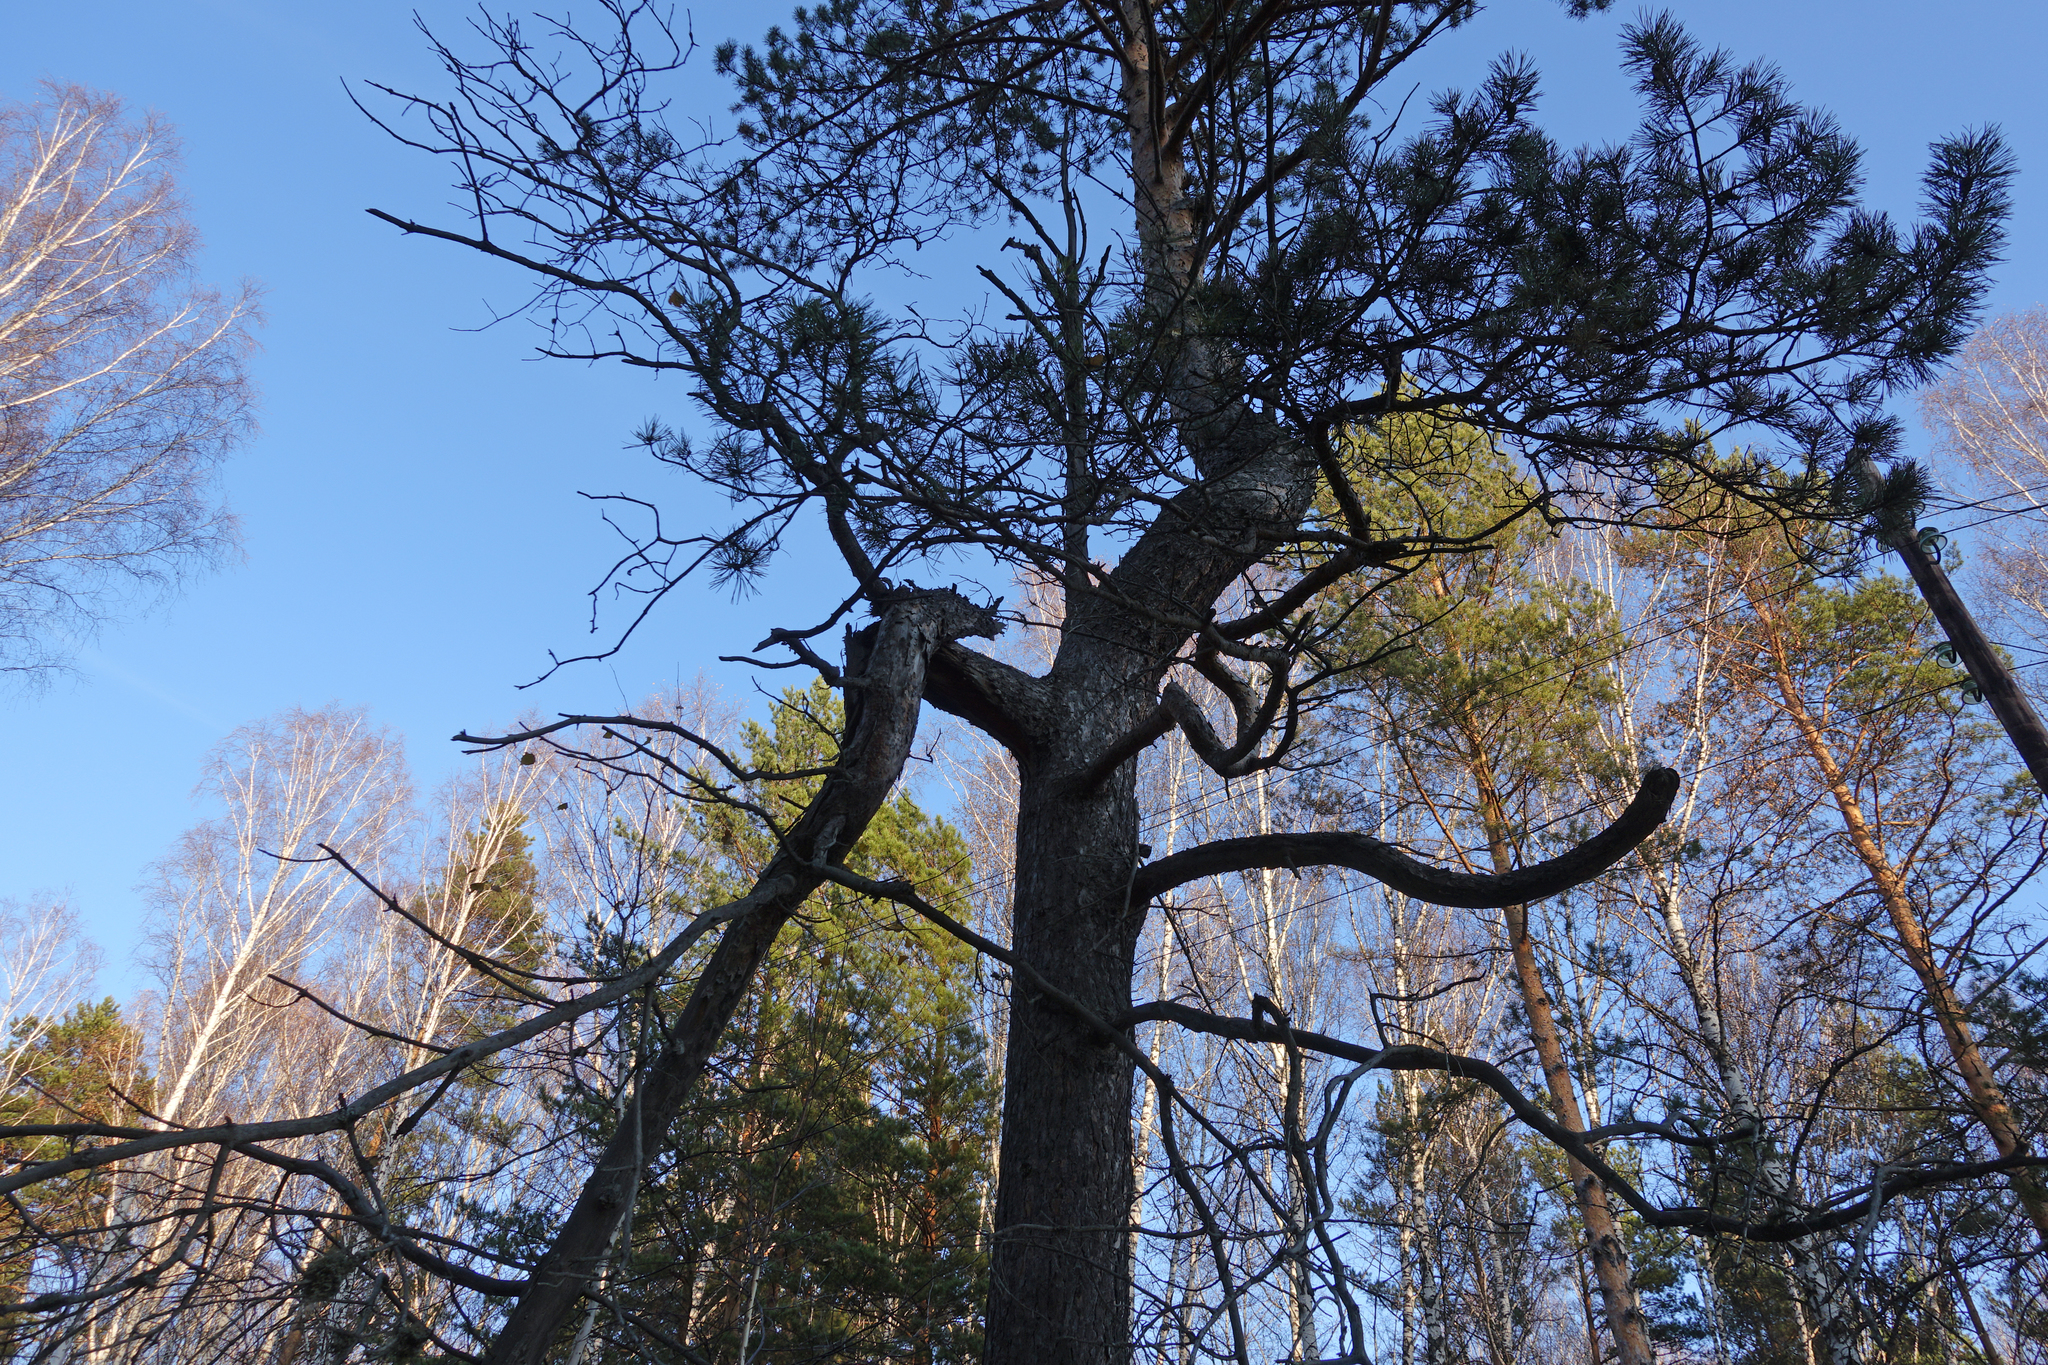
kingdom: Plantae
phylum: Tracheophyta
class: Pinopsida
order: Pinales
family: Pinaceae
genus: Pinus
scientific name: Pinus sylvestris
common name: Scots pine
